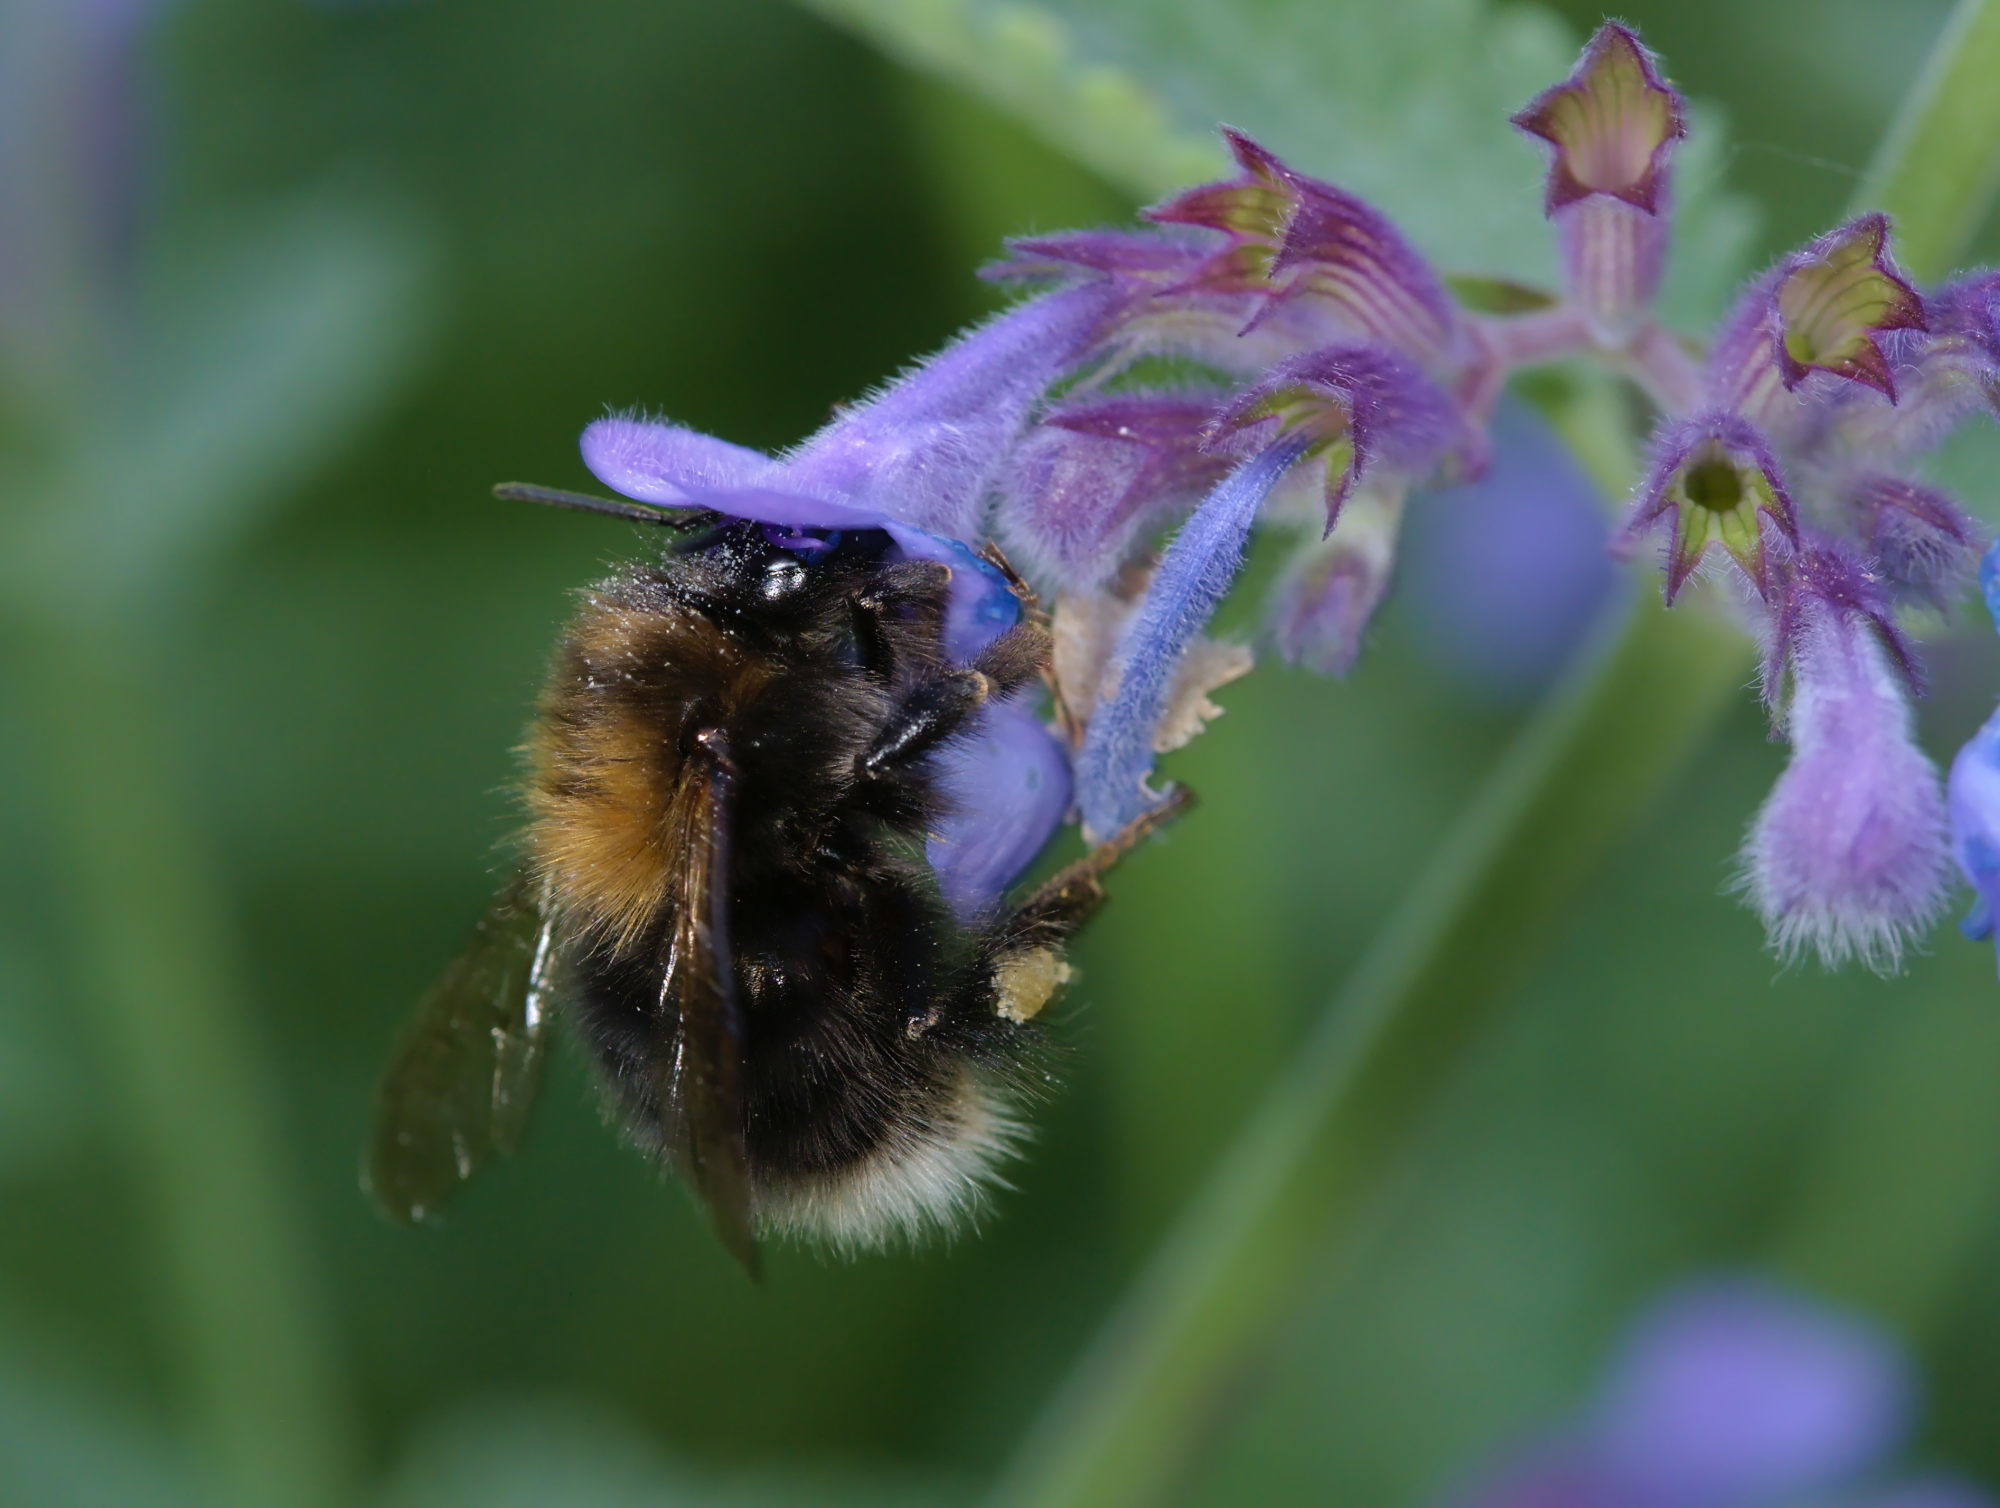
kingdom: Animalia
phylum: Arthropoda
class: Insecta
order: Hymenoptera
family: Apidae
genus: Bombus
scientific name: Bombus hypnorum
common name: New garden bumblebee
